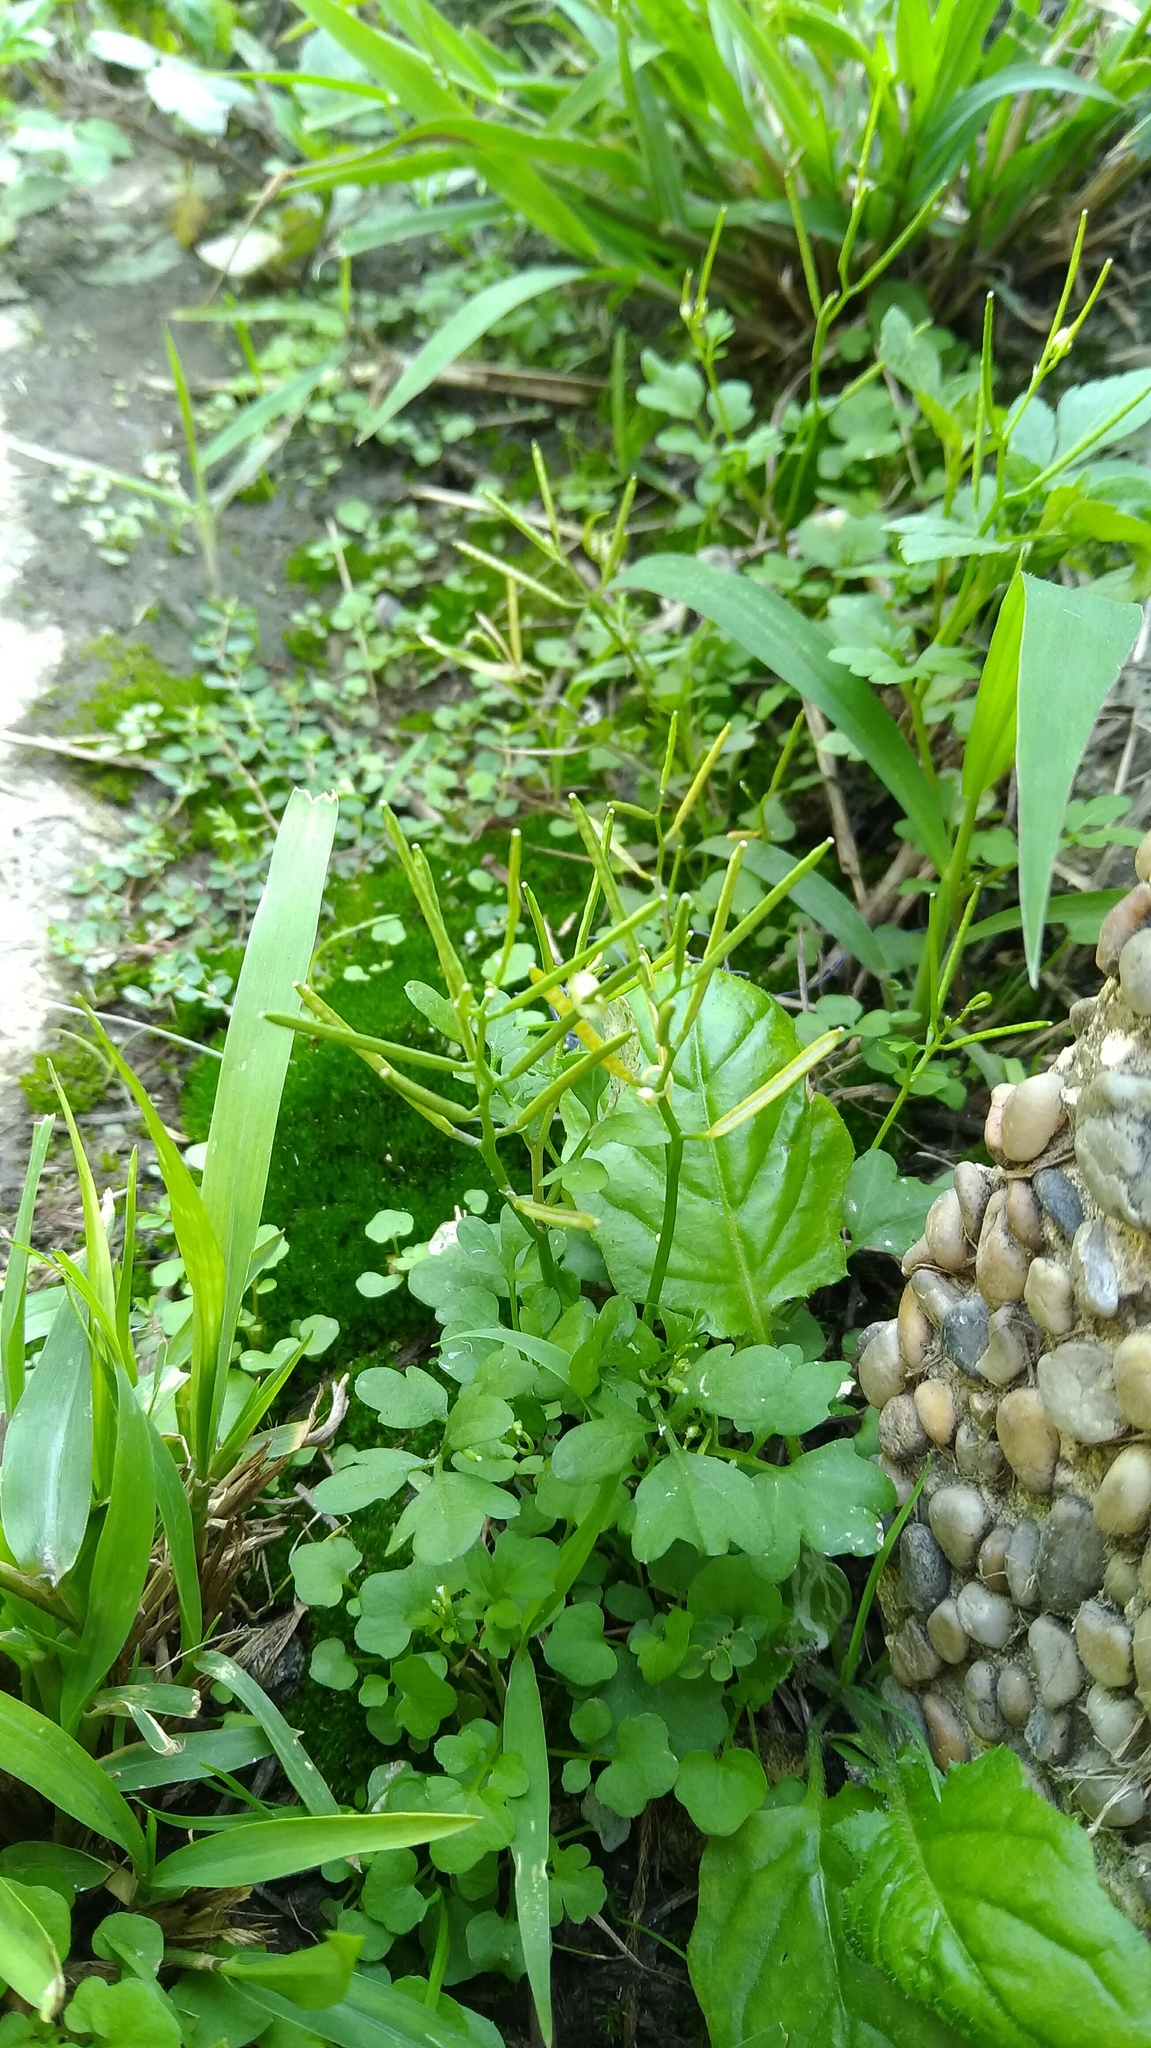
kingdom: Plantae
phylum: Tracheophyta
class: Magnoliopsida
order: Brassicales
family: Brassicaceae
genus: Cardamine
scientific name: Cardamine flexuosa
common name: Woodland bittercress
